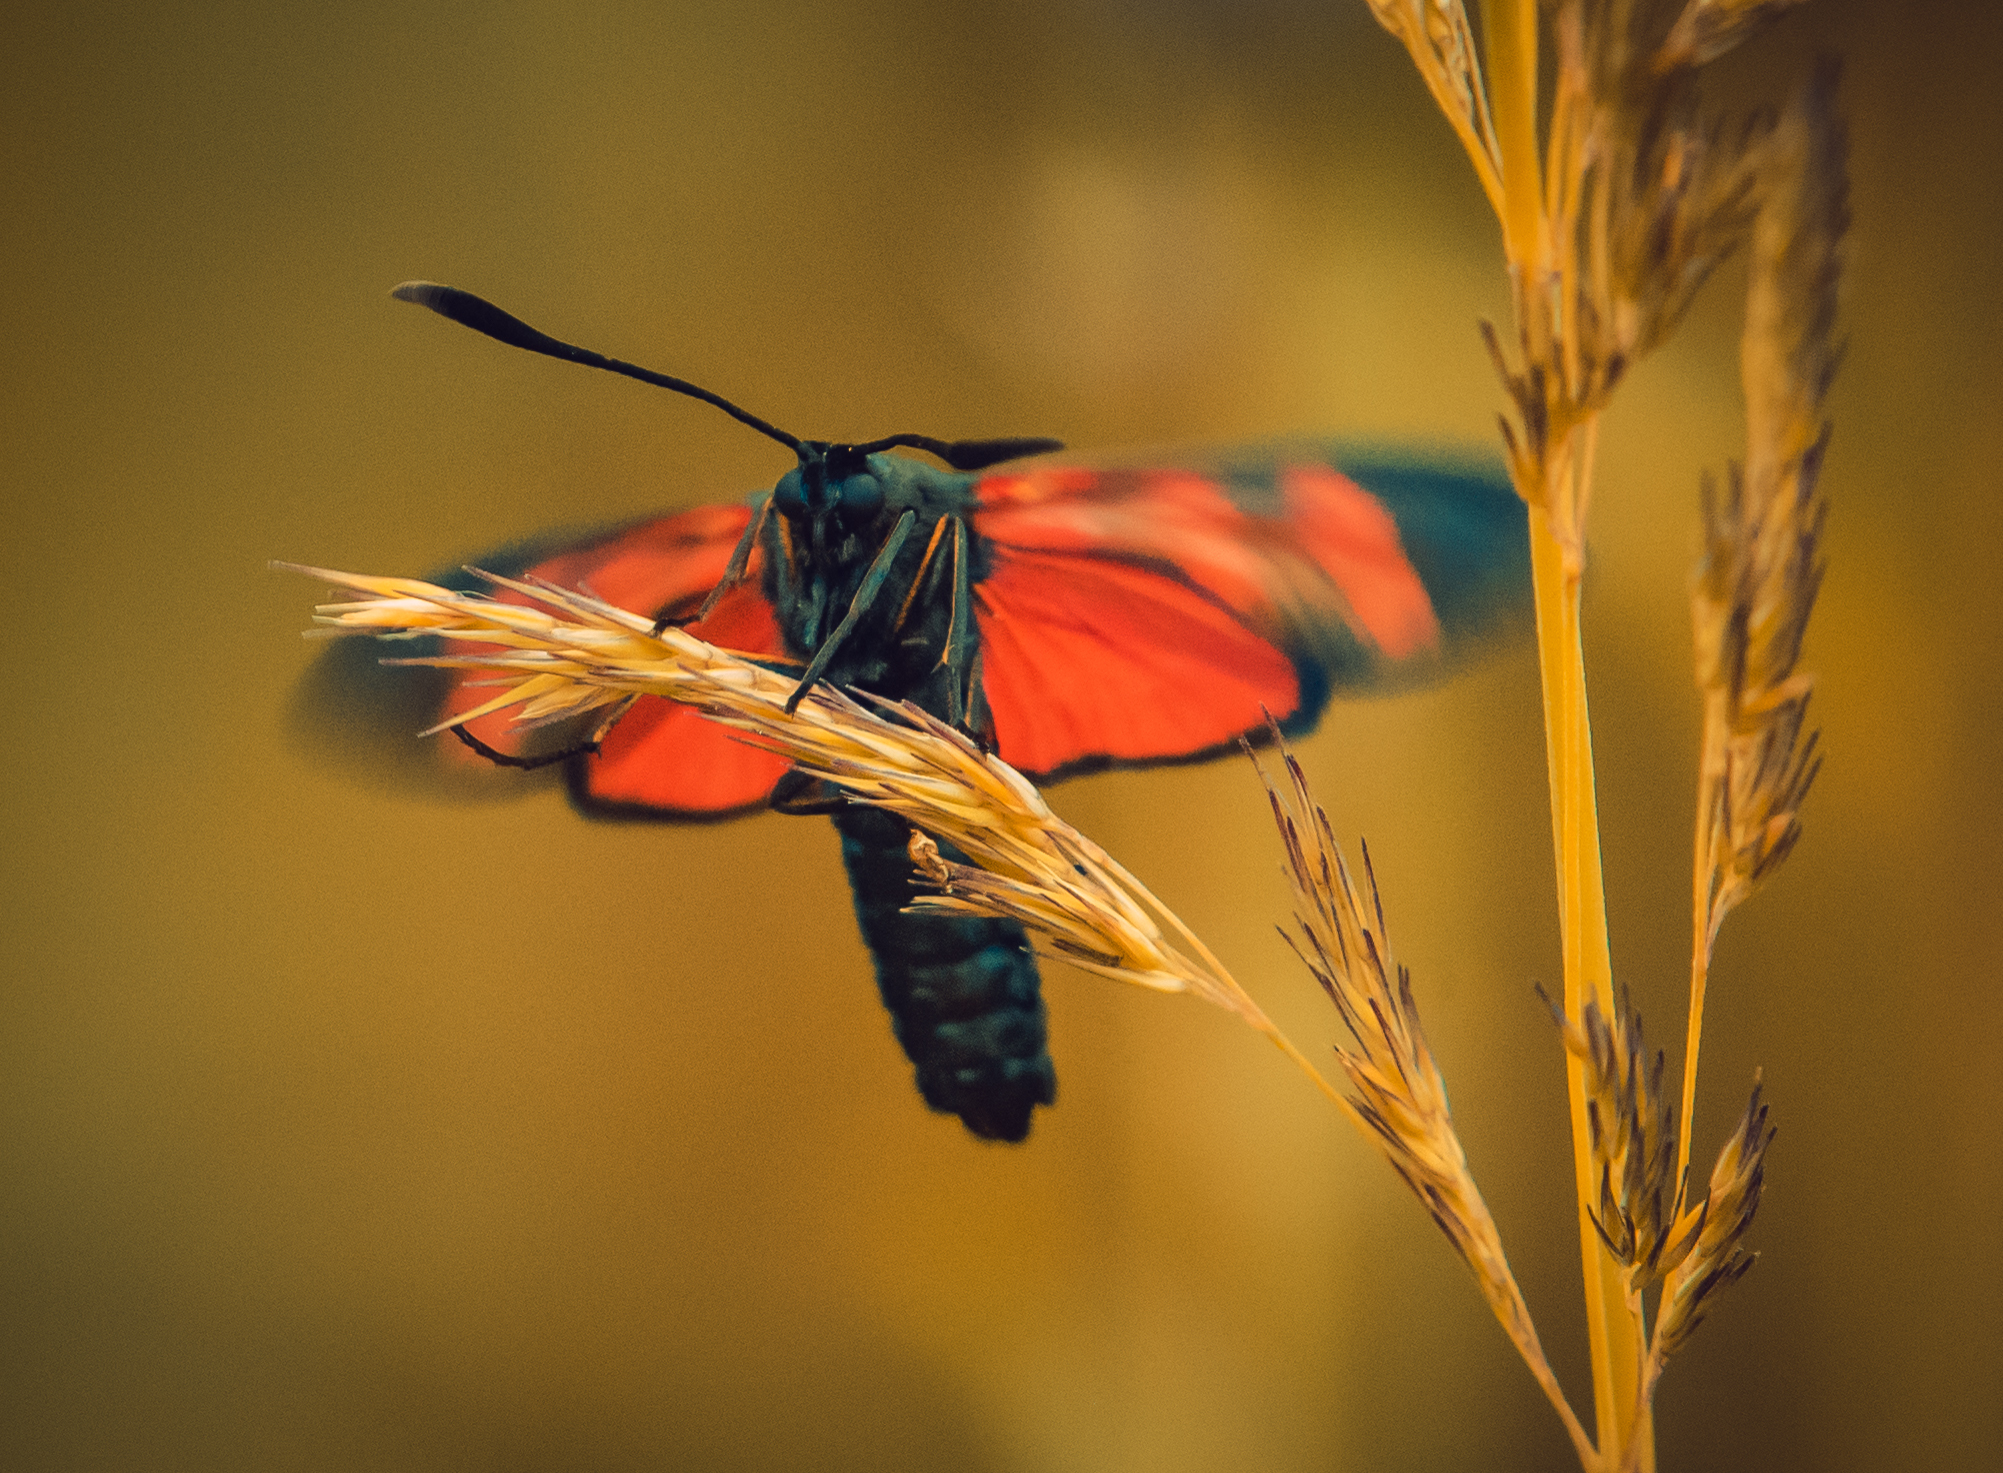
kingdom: Animalia
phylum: Arthropoda
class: Insecta
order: Lepidoptera
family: Zygaenidae
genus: Zygaena
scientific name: Zygaena filipendulae
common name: Six-spot burnet
